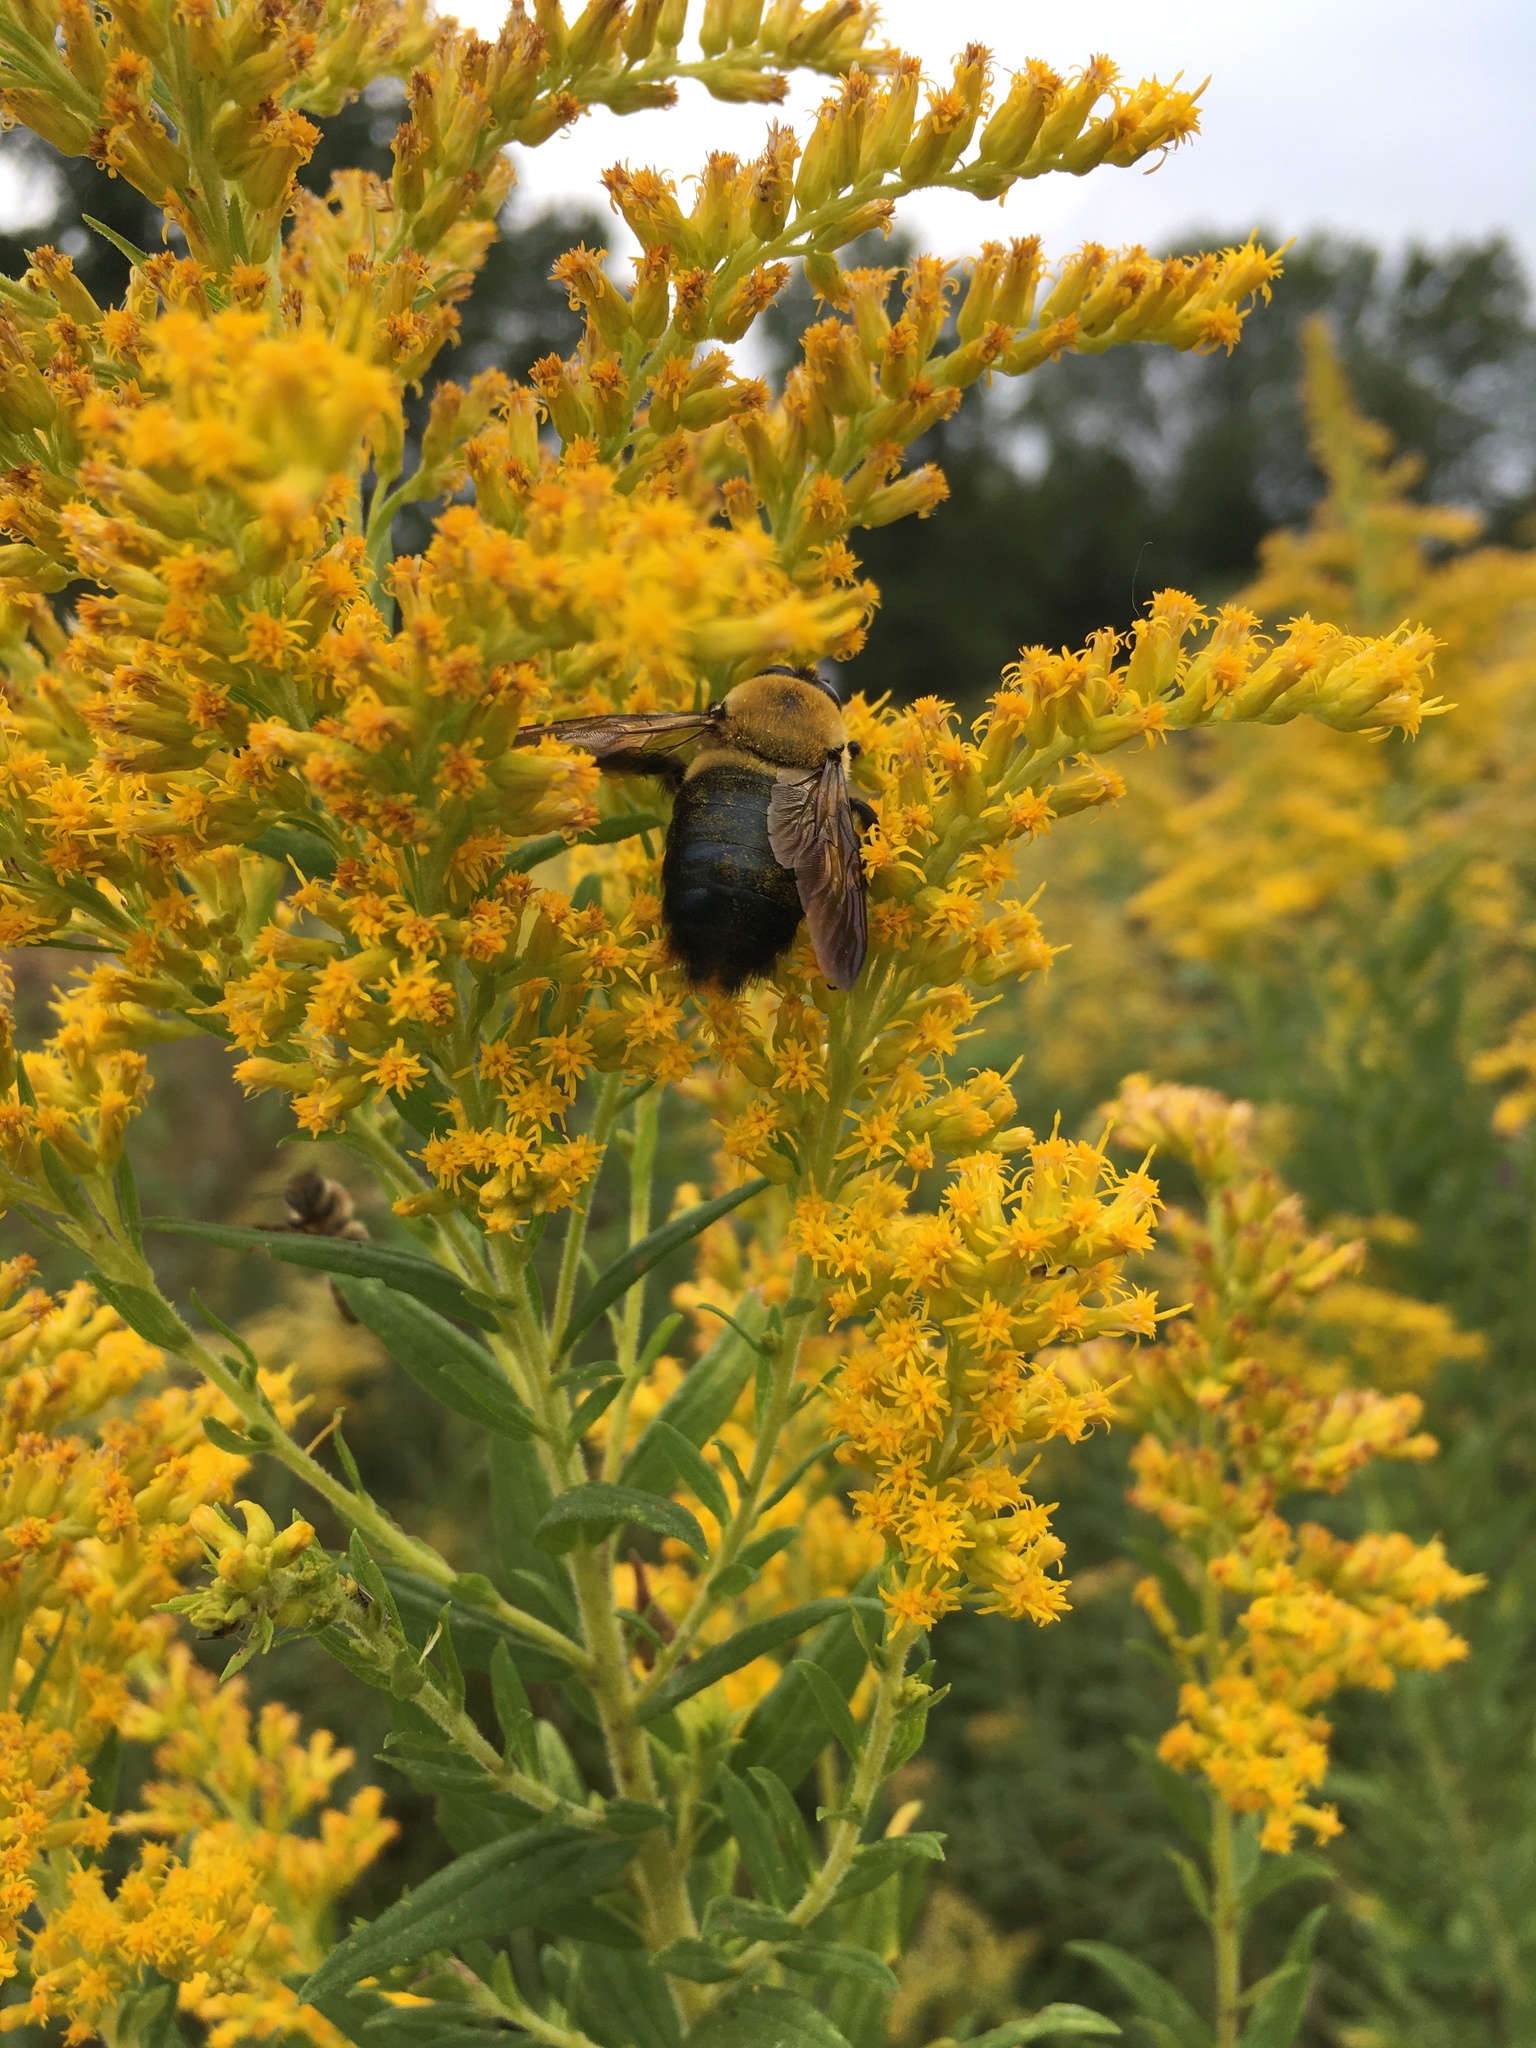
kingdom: Animalia
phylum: Arthropoda
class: Insecta
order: Hymenoptera
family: Apidae
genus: Xylocopa
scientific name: Xylocopa virginica
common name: Carpenter bee
